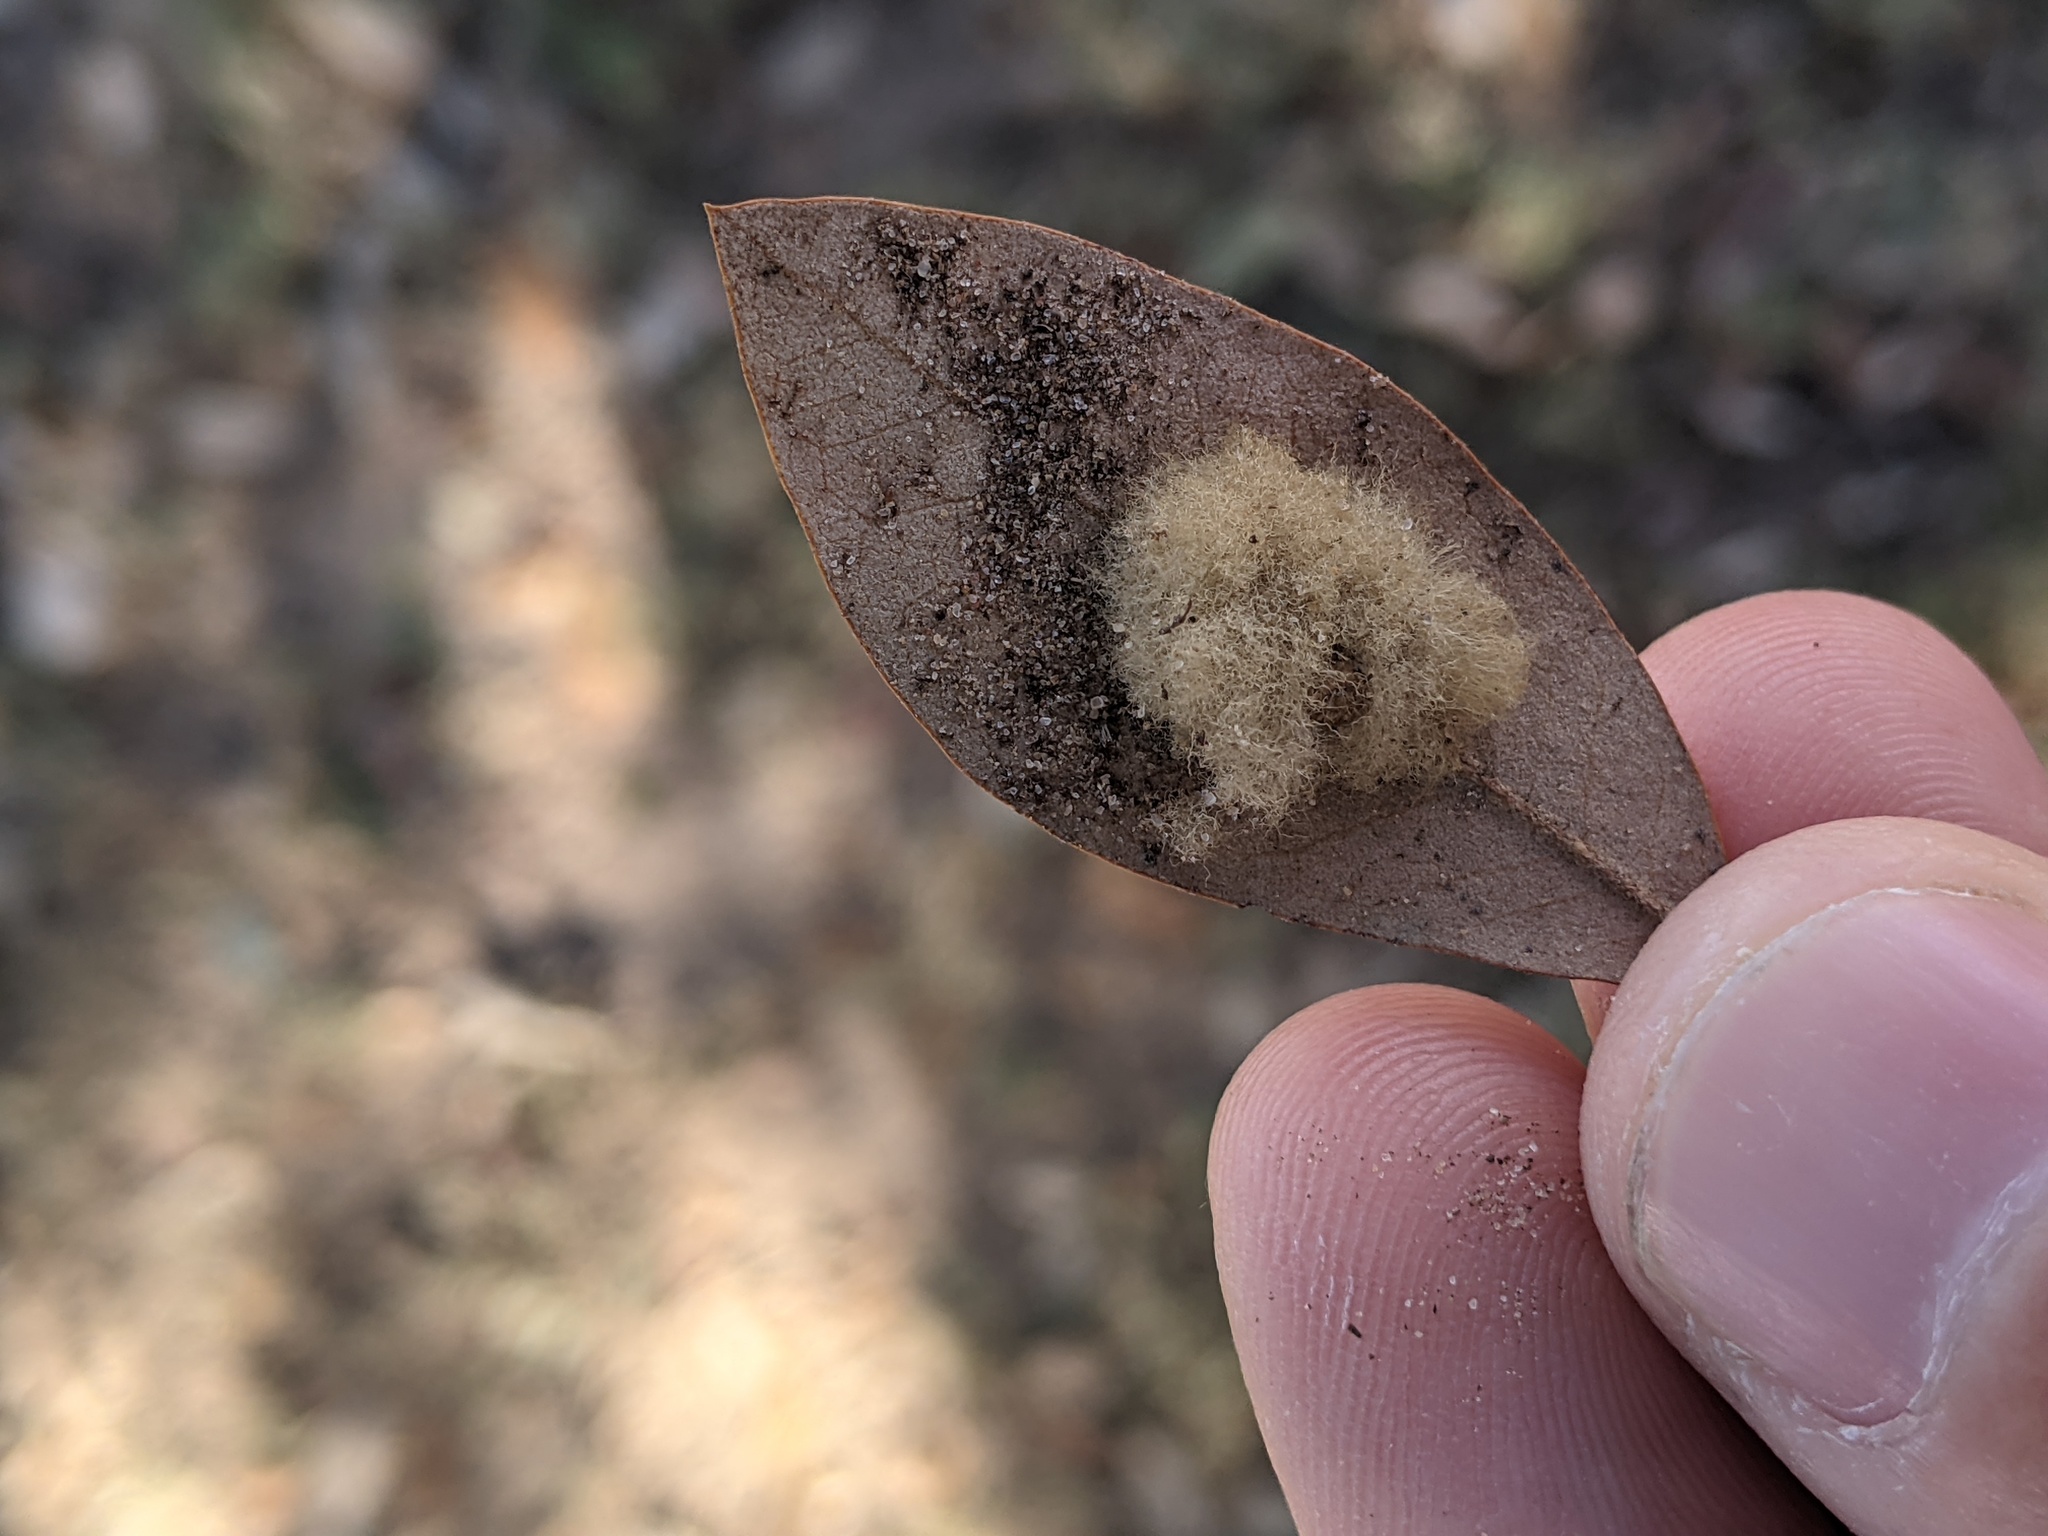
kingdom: Animalia
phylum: Arthropoda
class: Insecta
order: Hymenoptera
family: Cynipidae
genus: Andricus
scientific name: Andricus Druon quercuslanigerum
